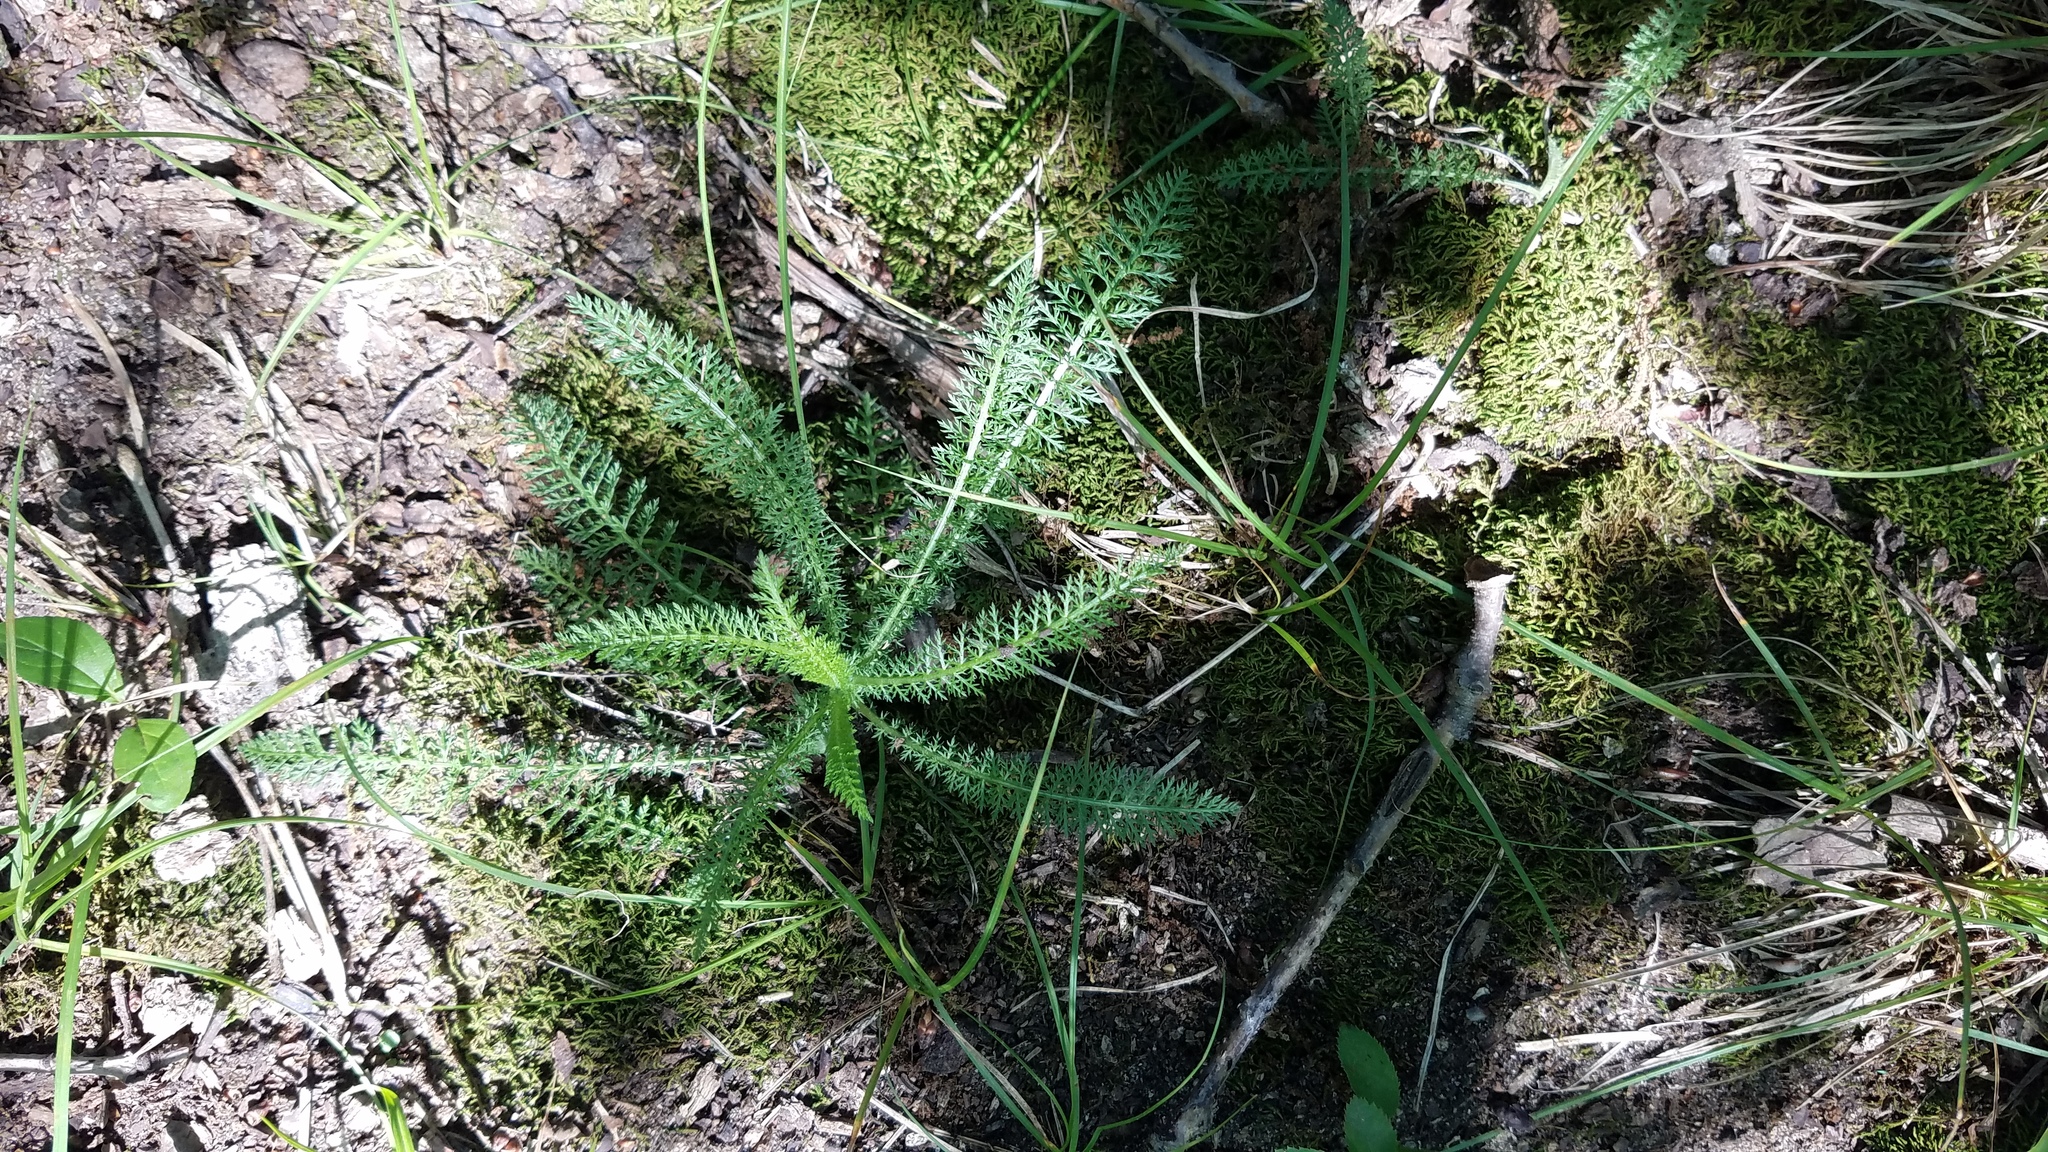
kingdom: Plantae
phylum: Tracheophyta
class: Magnoliopsida
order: Asterales
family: Asteraceae
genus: Achillea
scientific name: Achillea millefolium
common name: Yarrow
